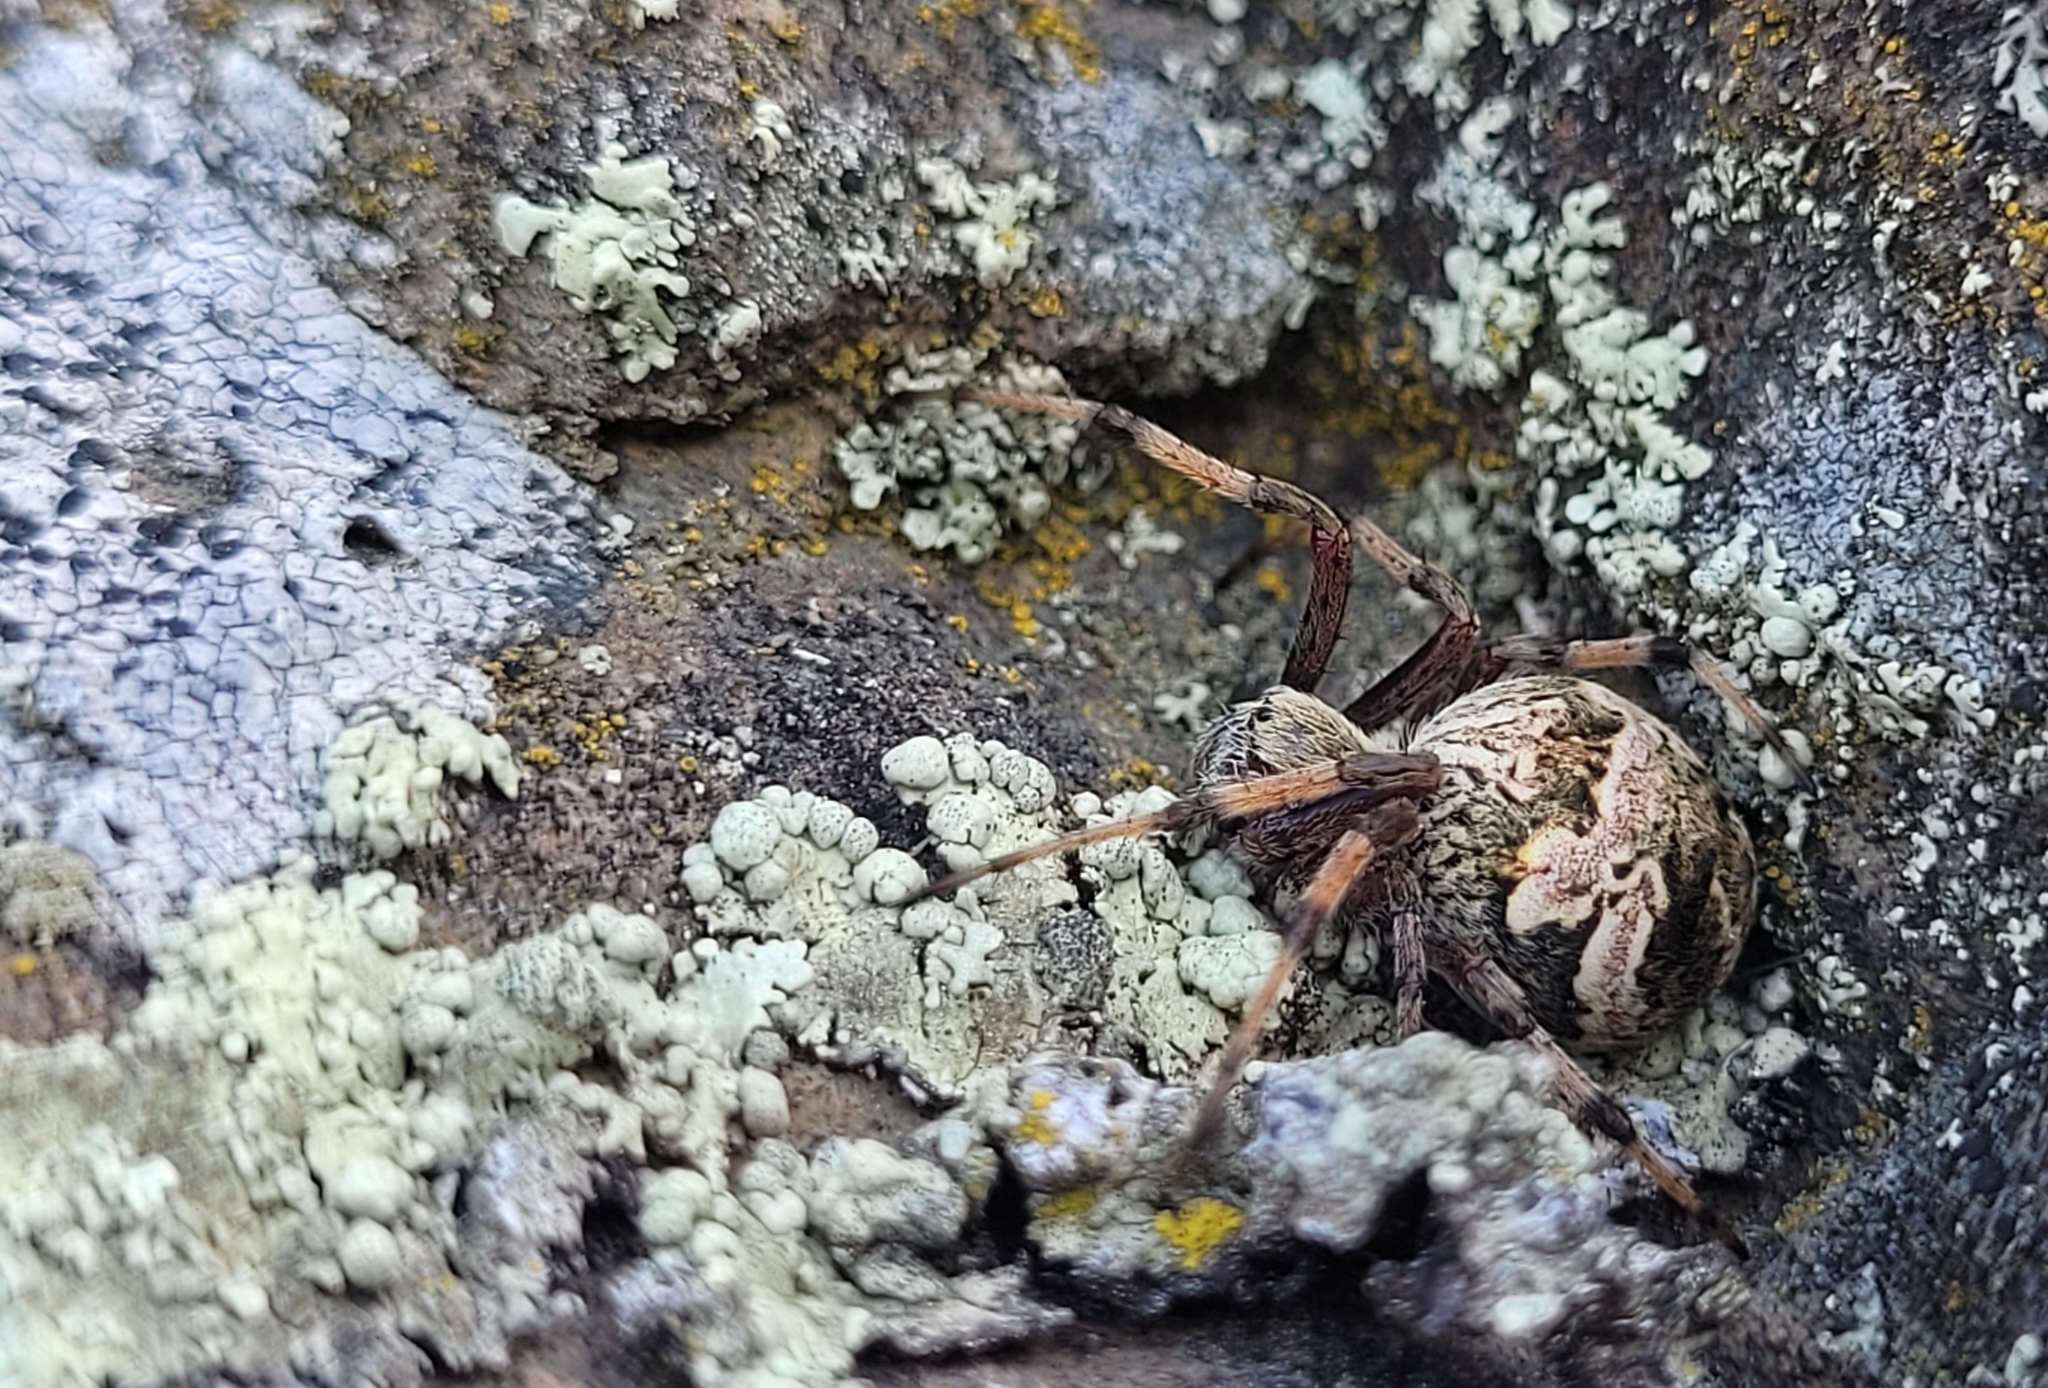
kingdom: Animalia
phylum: Arthropoda
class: Arachnida
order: Araneae
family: Araneidae
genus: Salsa
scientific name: Salsa fuliginata
